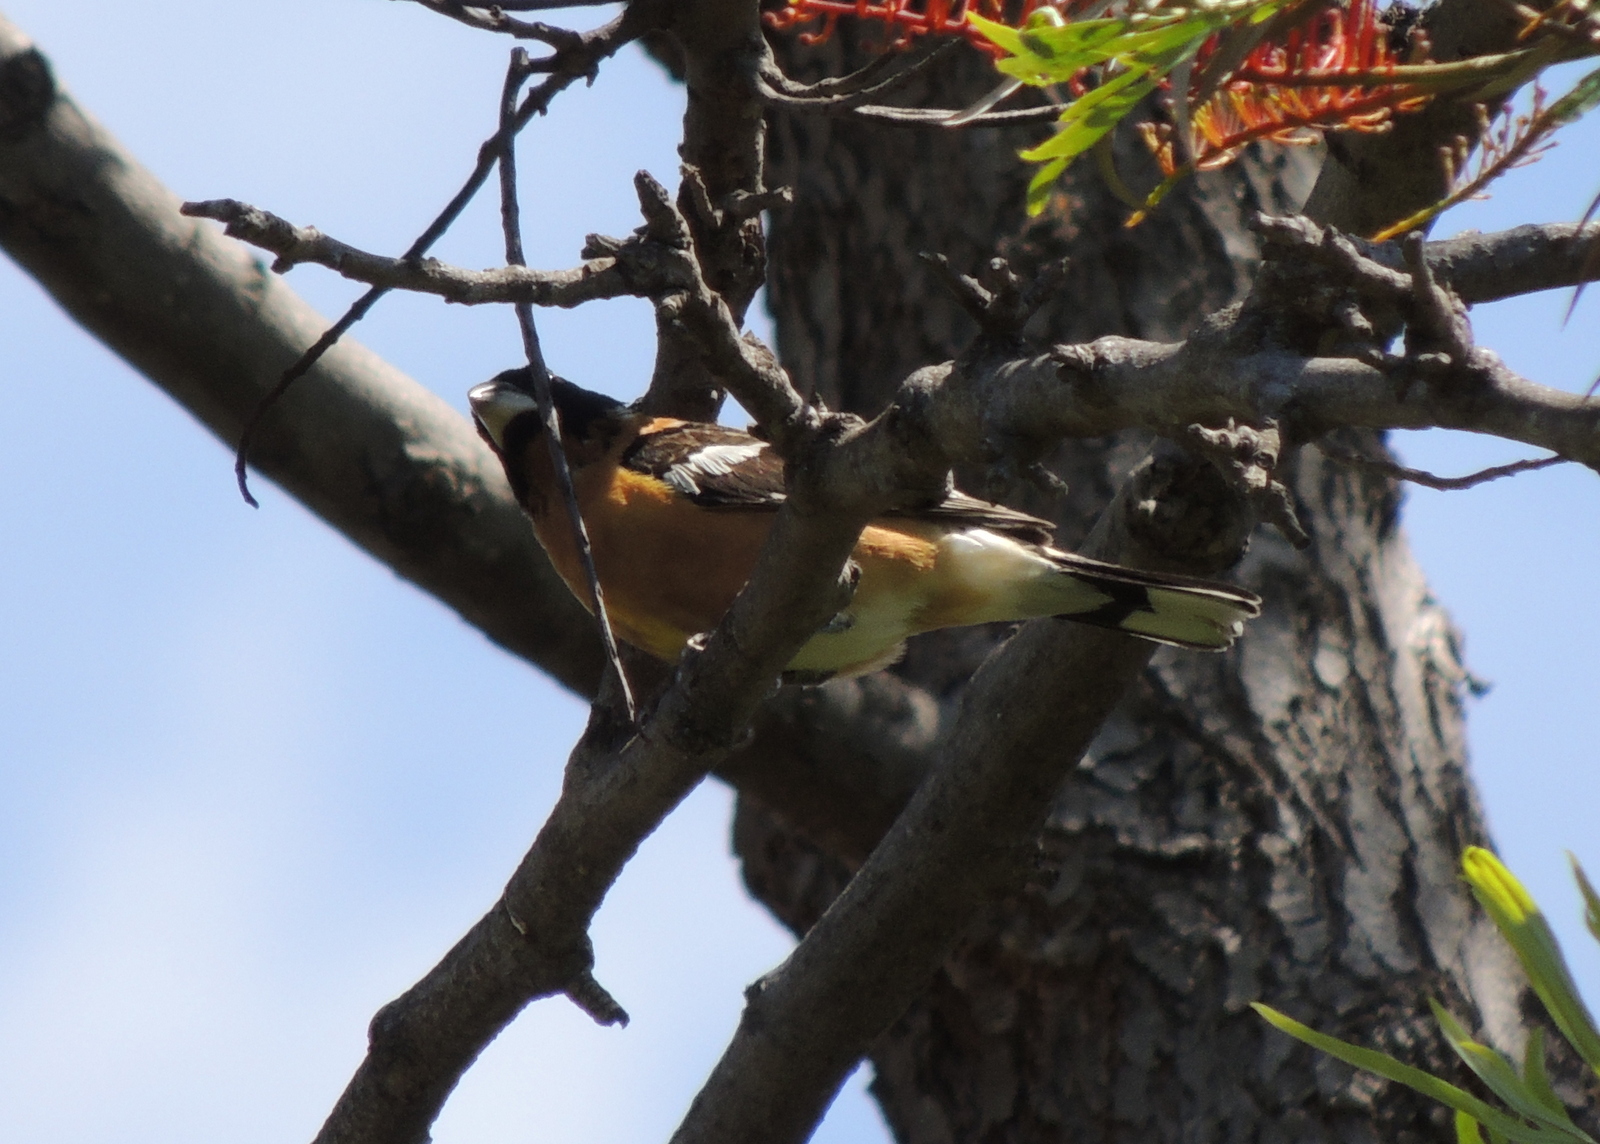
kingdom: Animalia
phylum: Chordata
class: Aves
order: Passeriformes
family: Cardinalidae
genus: Pheucticus
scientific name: Pheucticus melanocephalus
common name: Black-headed grosbeak
